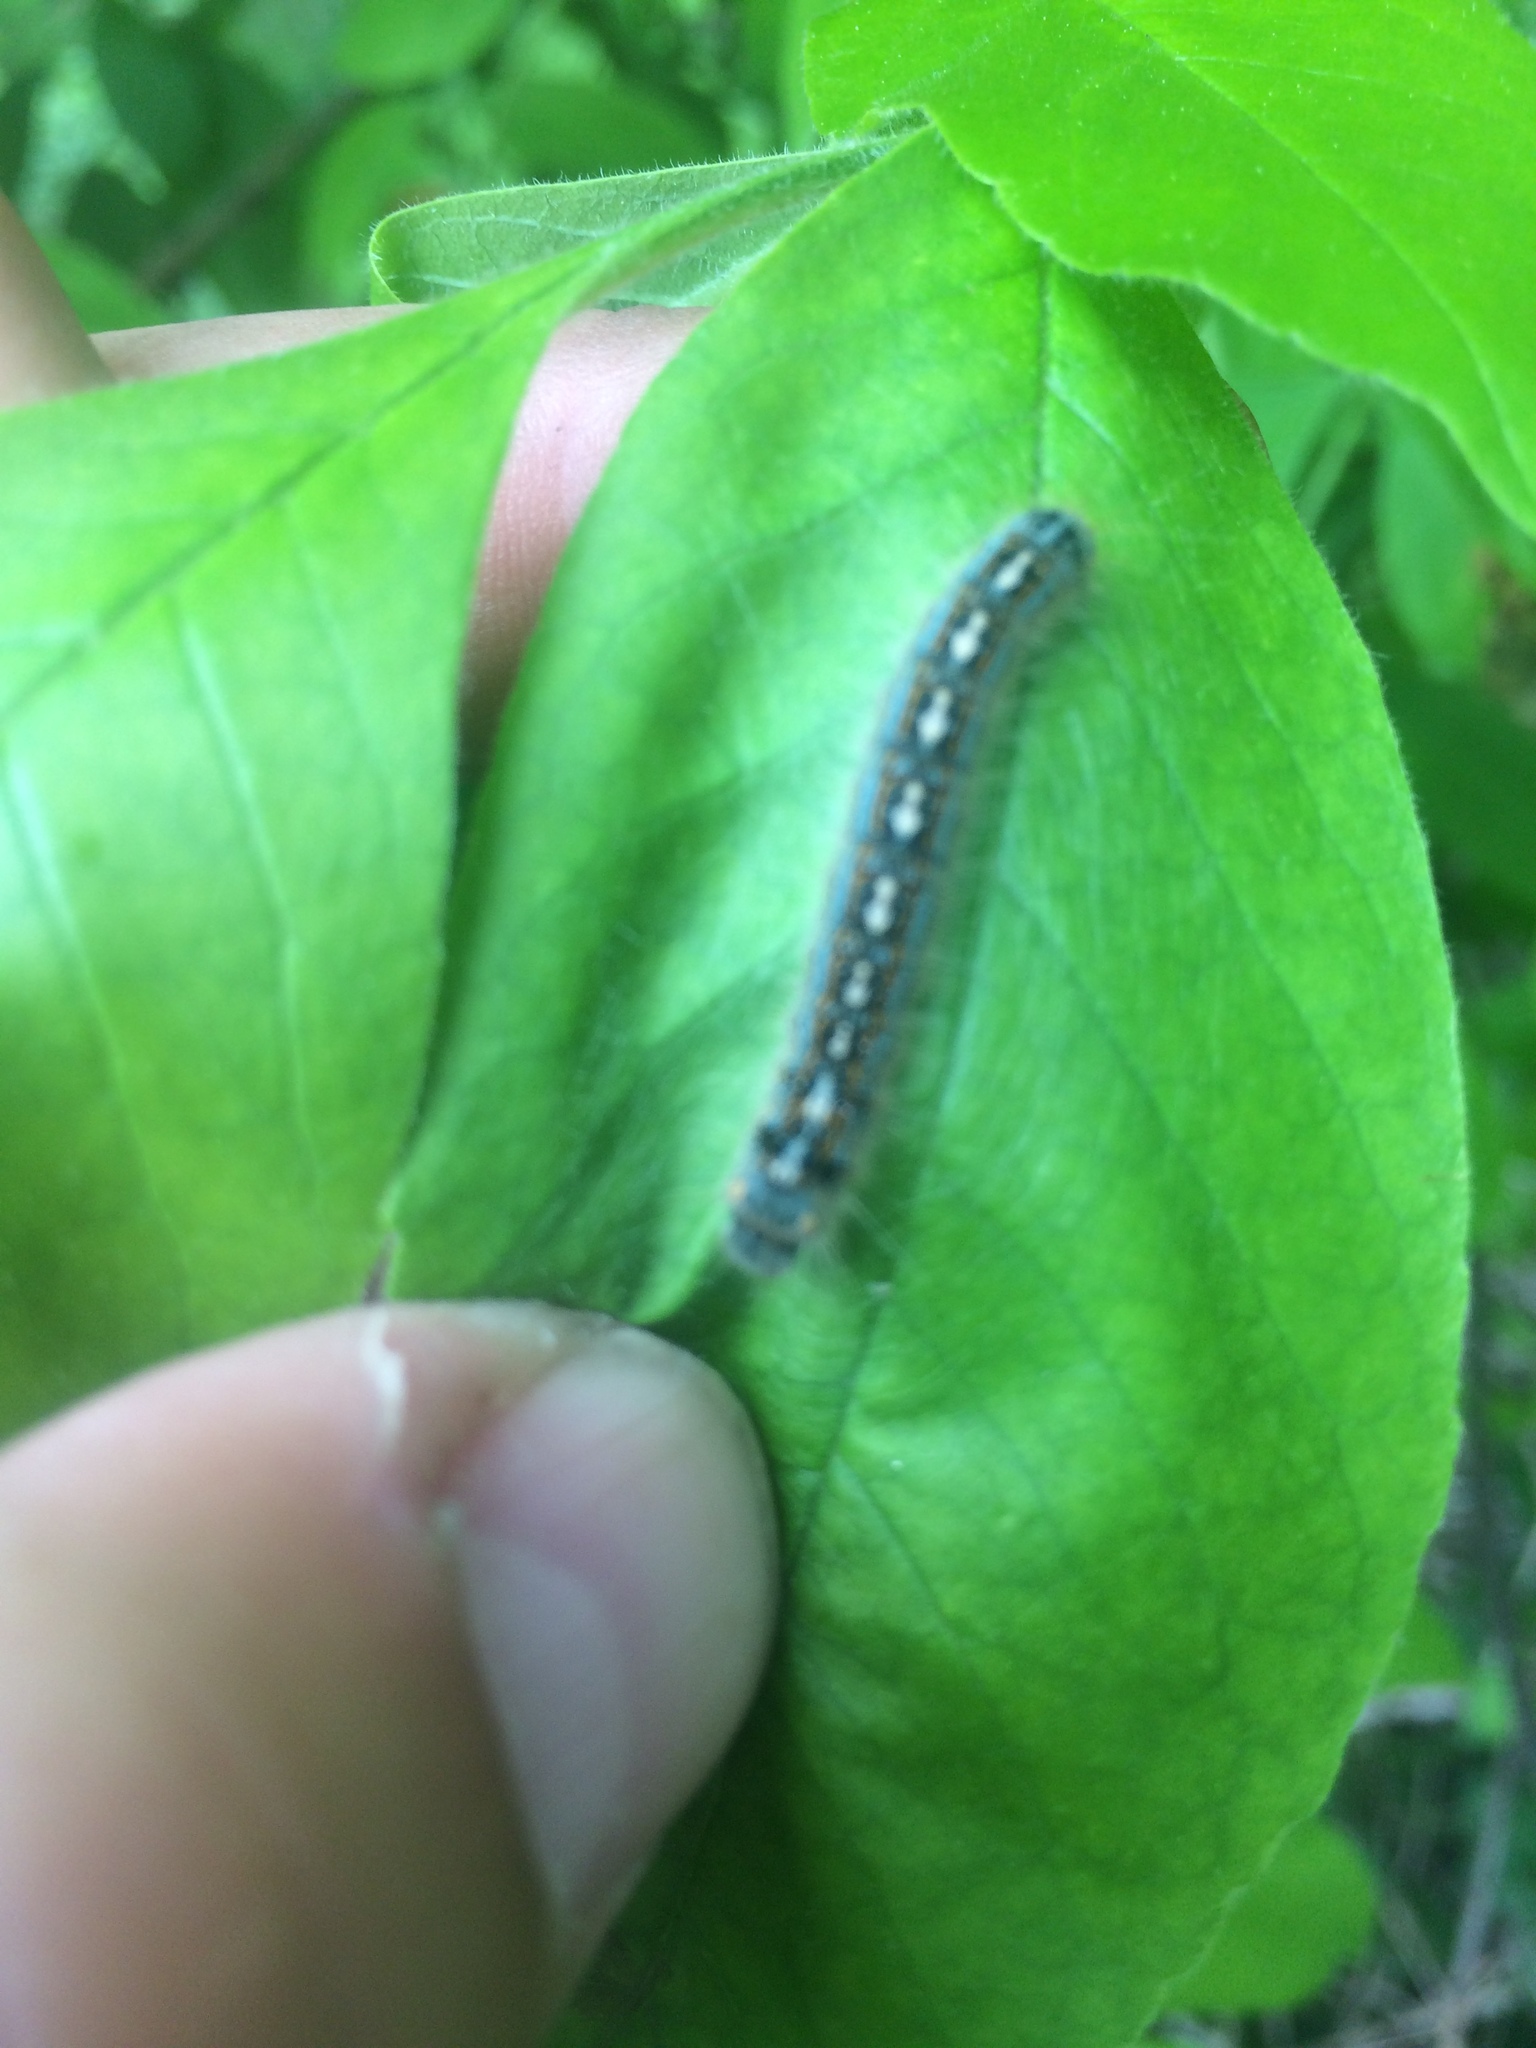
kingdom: Animalia
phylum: Arthropoda
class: Insecta
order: Lepidoptera
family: Lasiocampidae
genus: Malacosoma
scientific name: Malacosoma disstria
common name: Forest tent caterpillar
